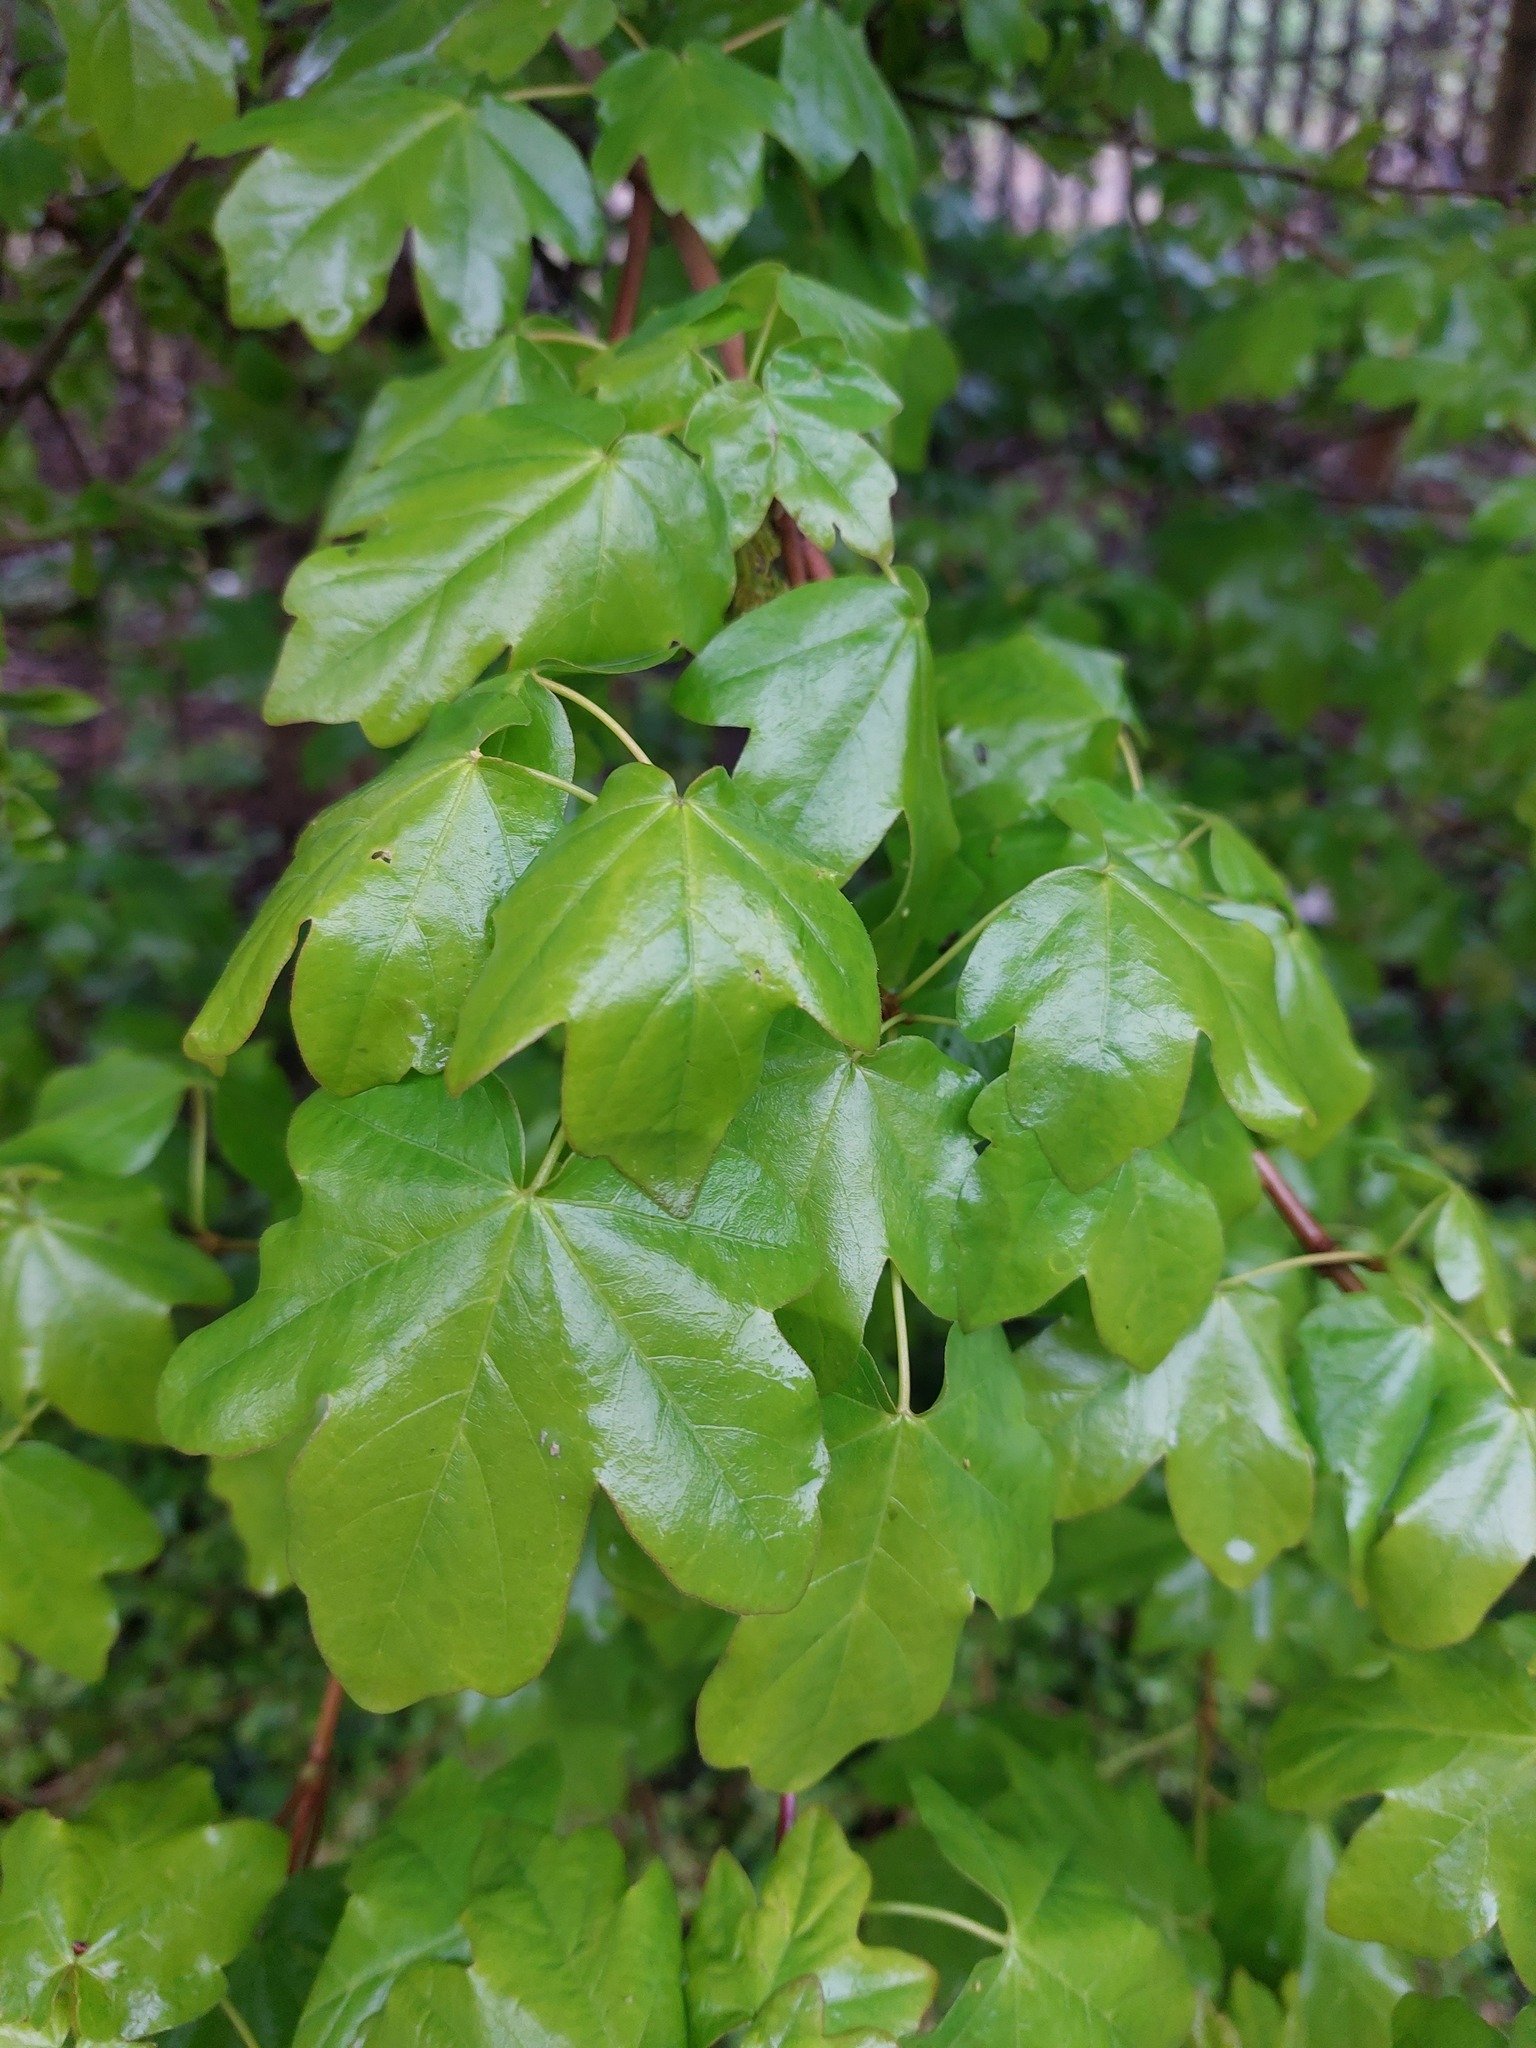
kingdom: Plantae
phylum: Tracheophyta
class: Magnoliopsida
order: Sapindales
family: Sapindaceae
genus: Acer
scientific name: Acer campestre
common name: Field maple
